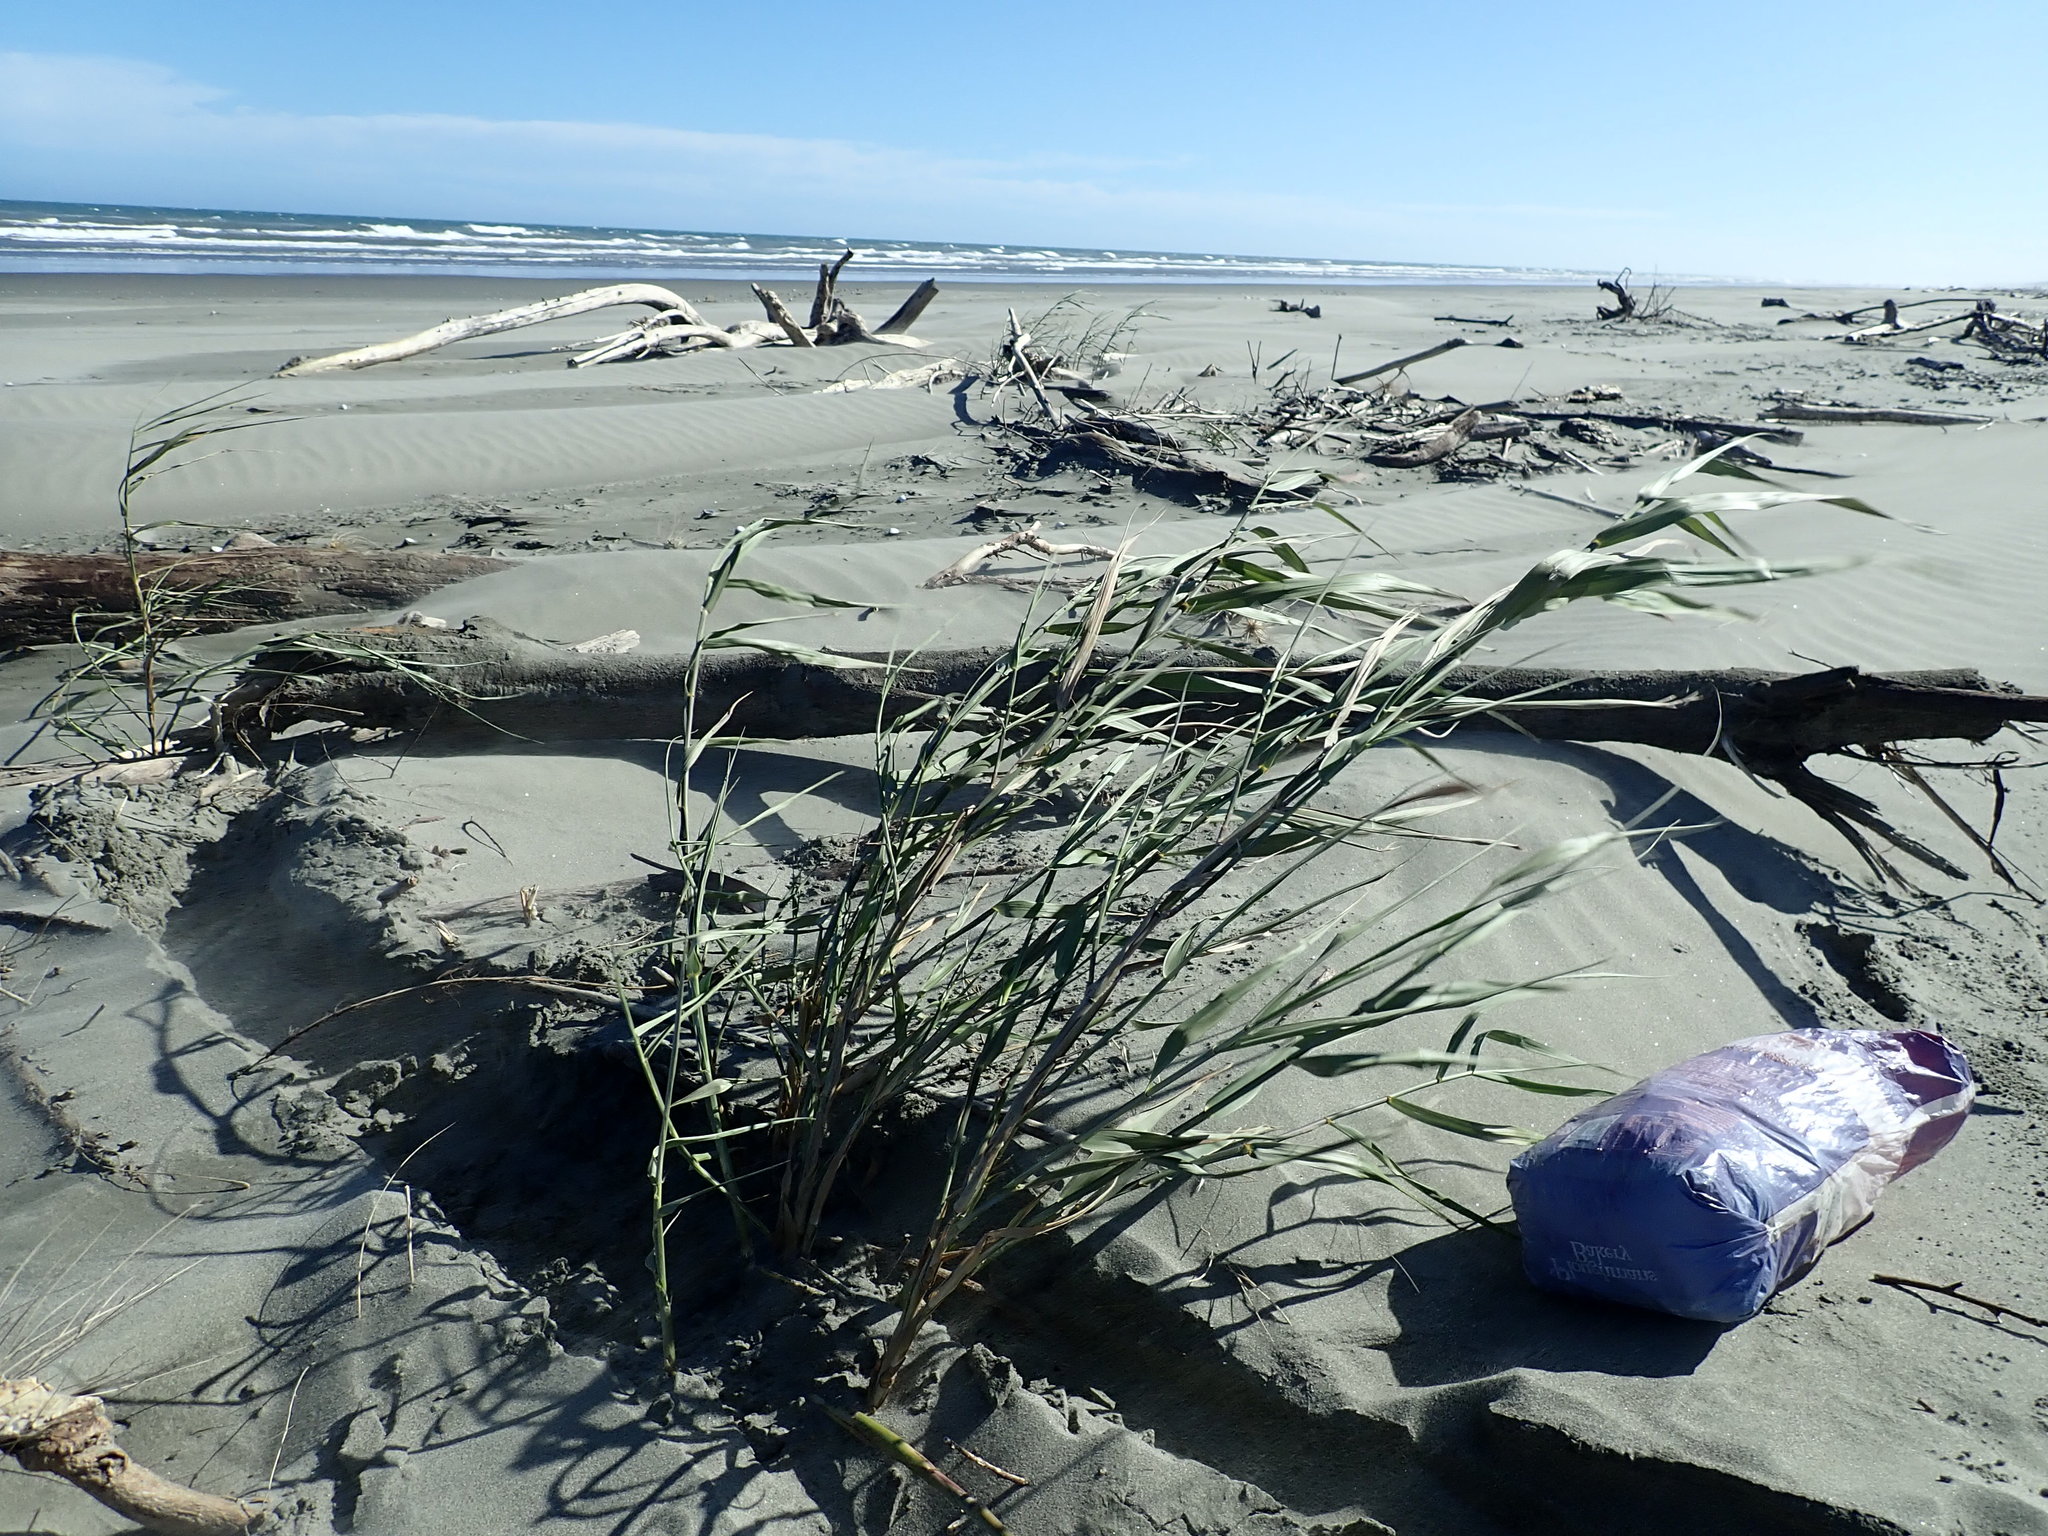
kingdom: Plantae
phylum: Tracheophyta
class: Liliopsida
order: Poales
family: Poaceae
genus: Phragmites
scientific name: Phragmites karka
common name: Tropical reed
